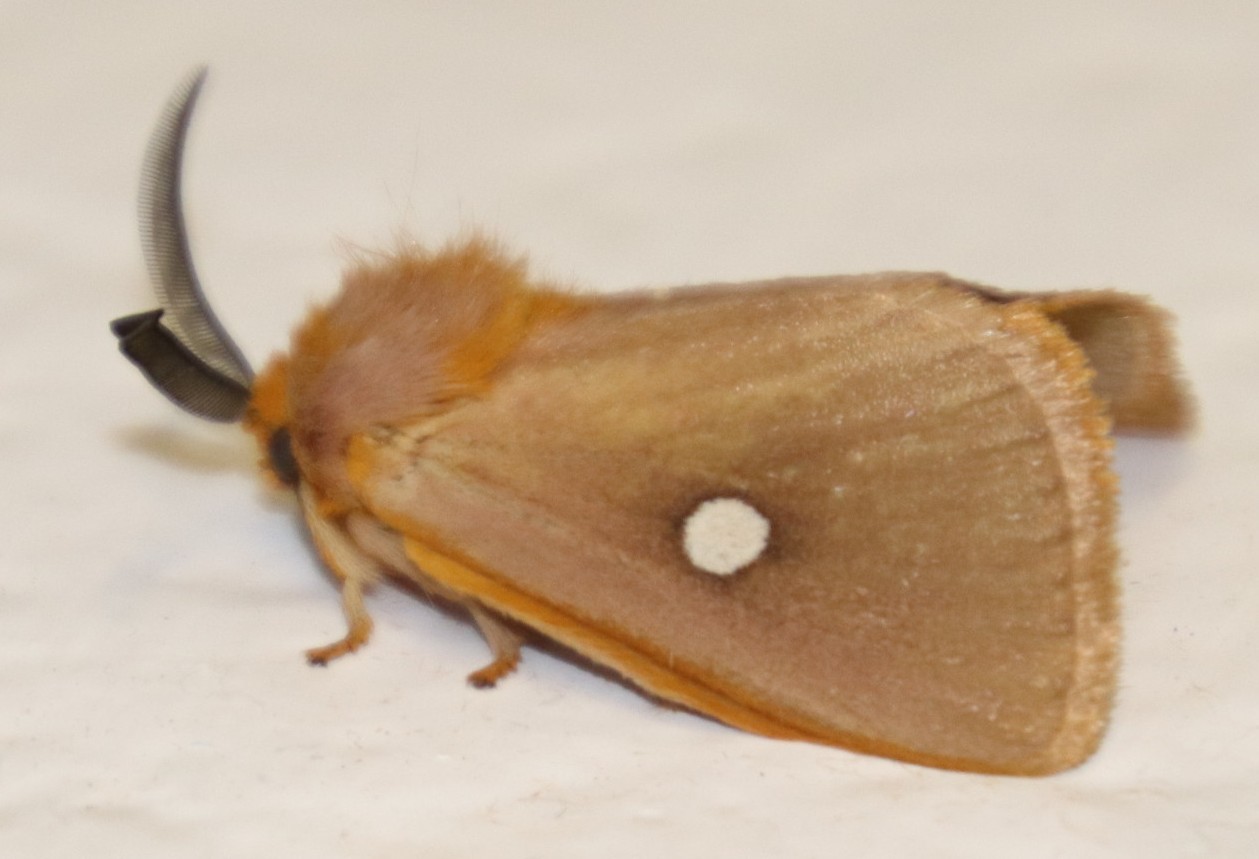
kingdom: Animalia
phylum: Arthropoda
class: Insecta
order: Lepidoptera
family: Limacodidae
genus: Chrysopoloma
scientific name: Chrysopoloma isabellina
